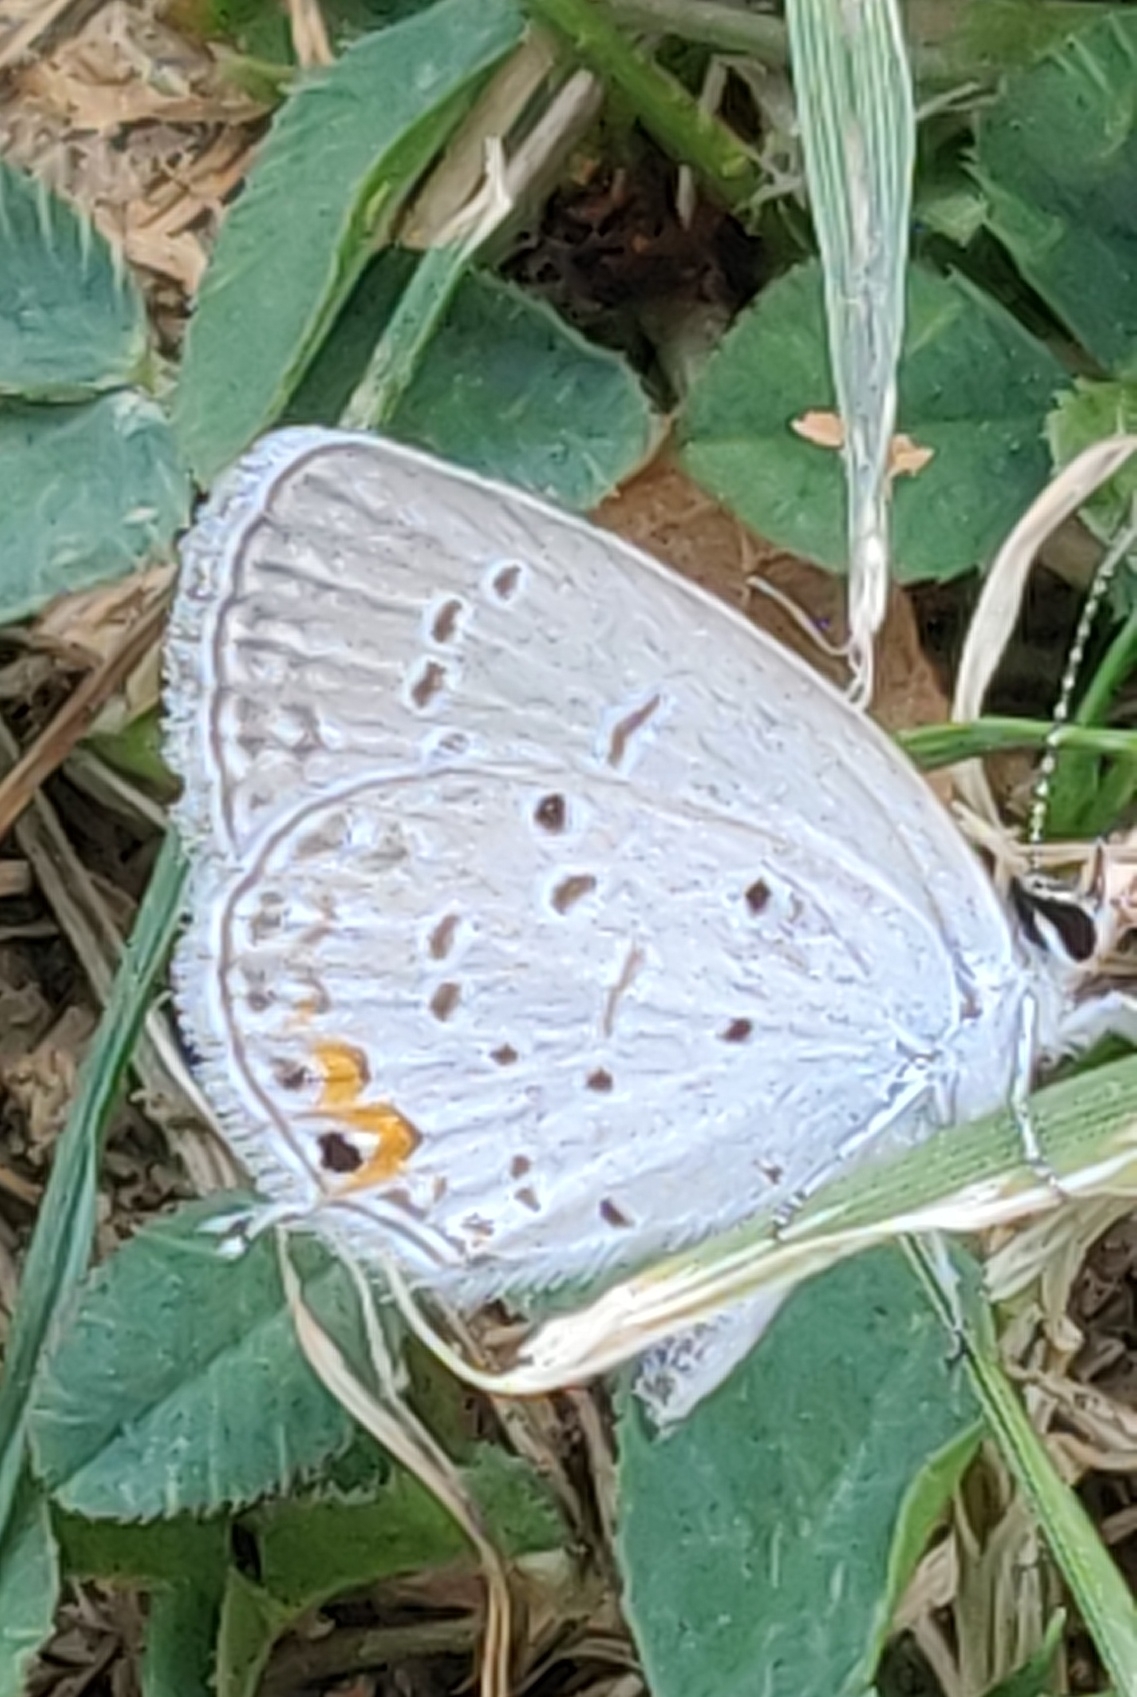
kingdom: Animalia
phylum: Arthropoda
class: Insecta
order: Lepidoptera
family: Lycaenidae
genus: Elkalyce
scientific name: Elkalyce comyntas
